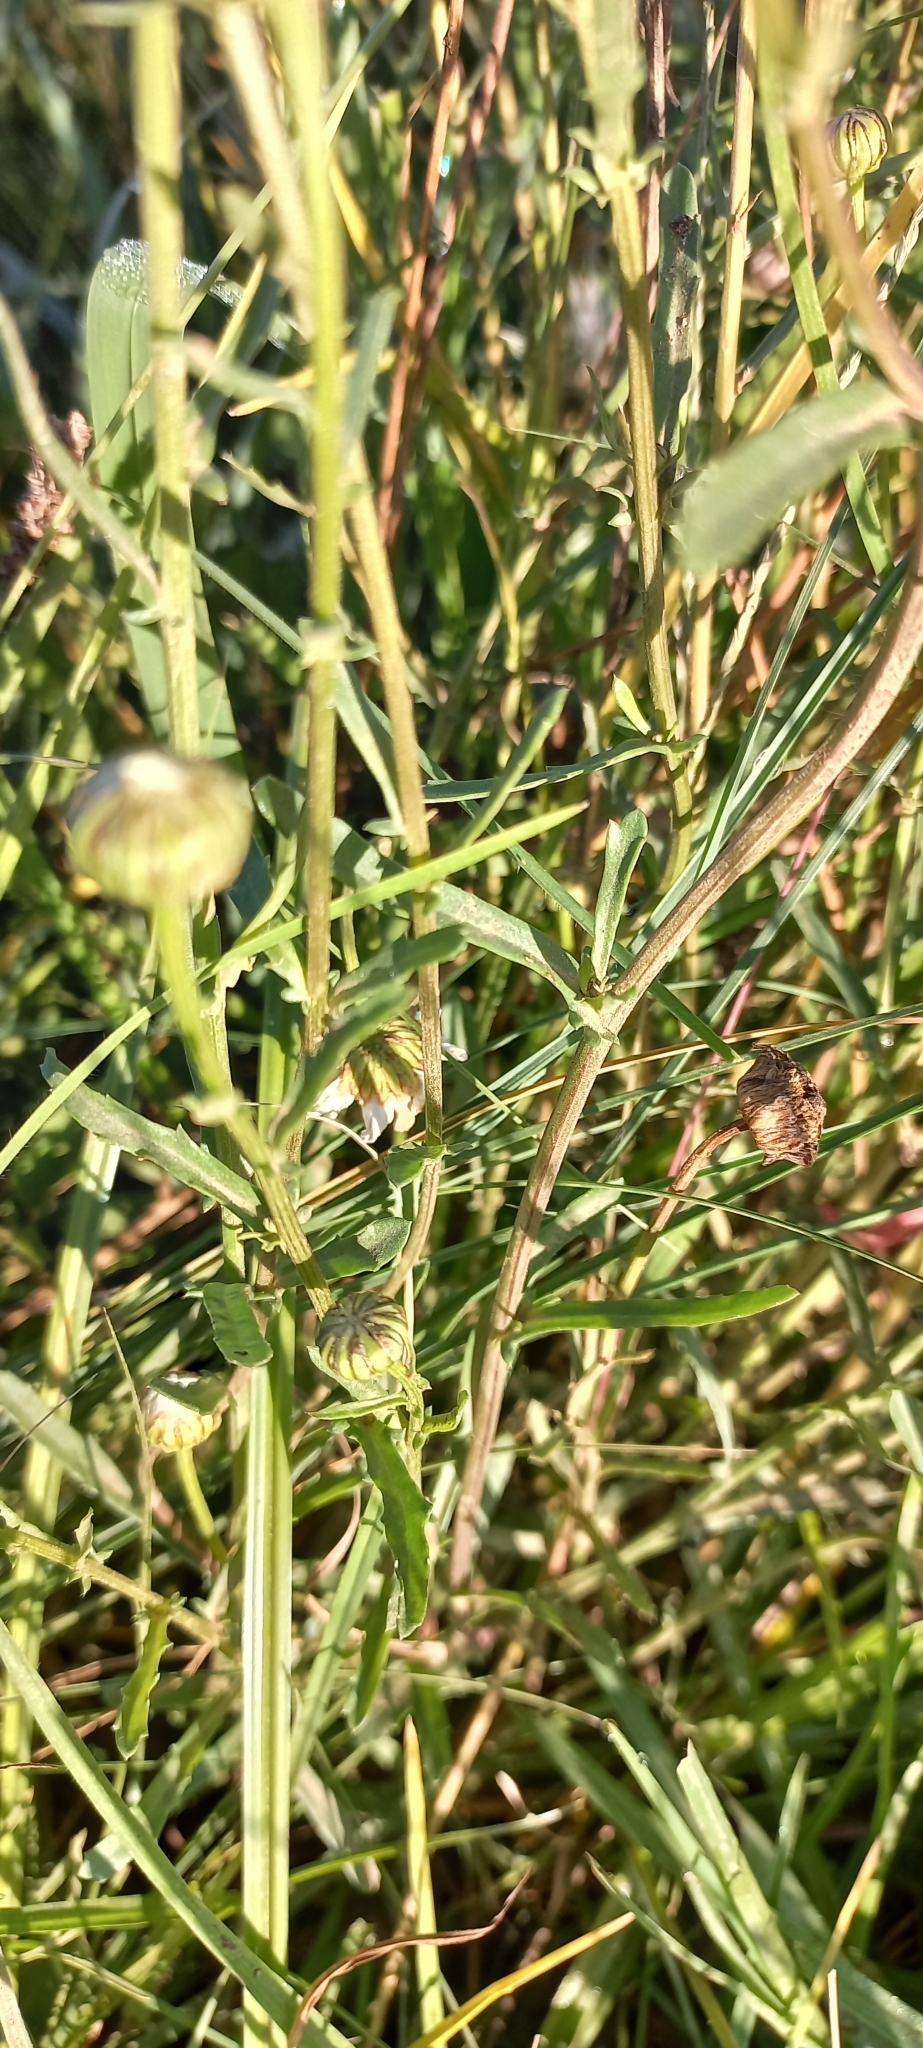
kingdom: Plantae
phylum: Tracheophyta
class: Magnoliopsida
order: Asterales
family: Asteraceae
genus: Leucanthemum
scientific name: Leucanthemum vulgare
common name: Oxeye daisy
